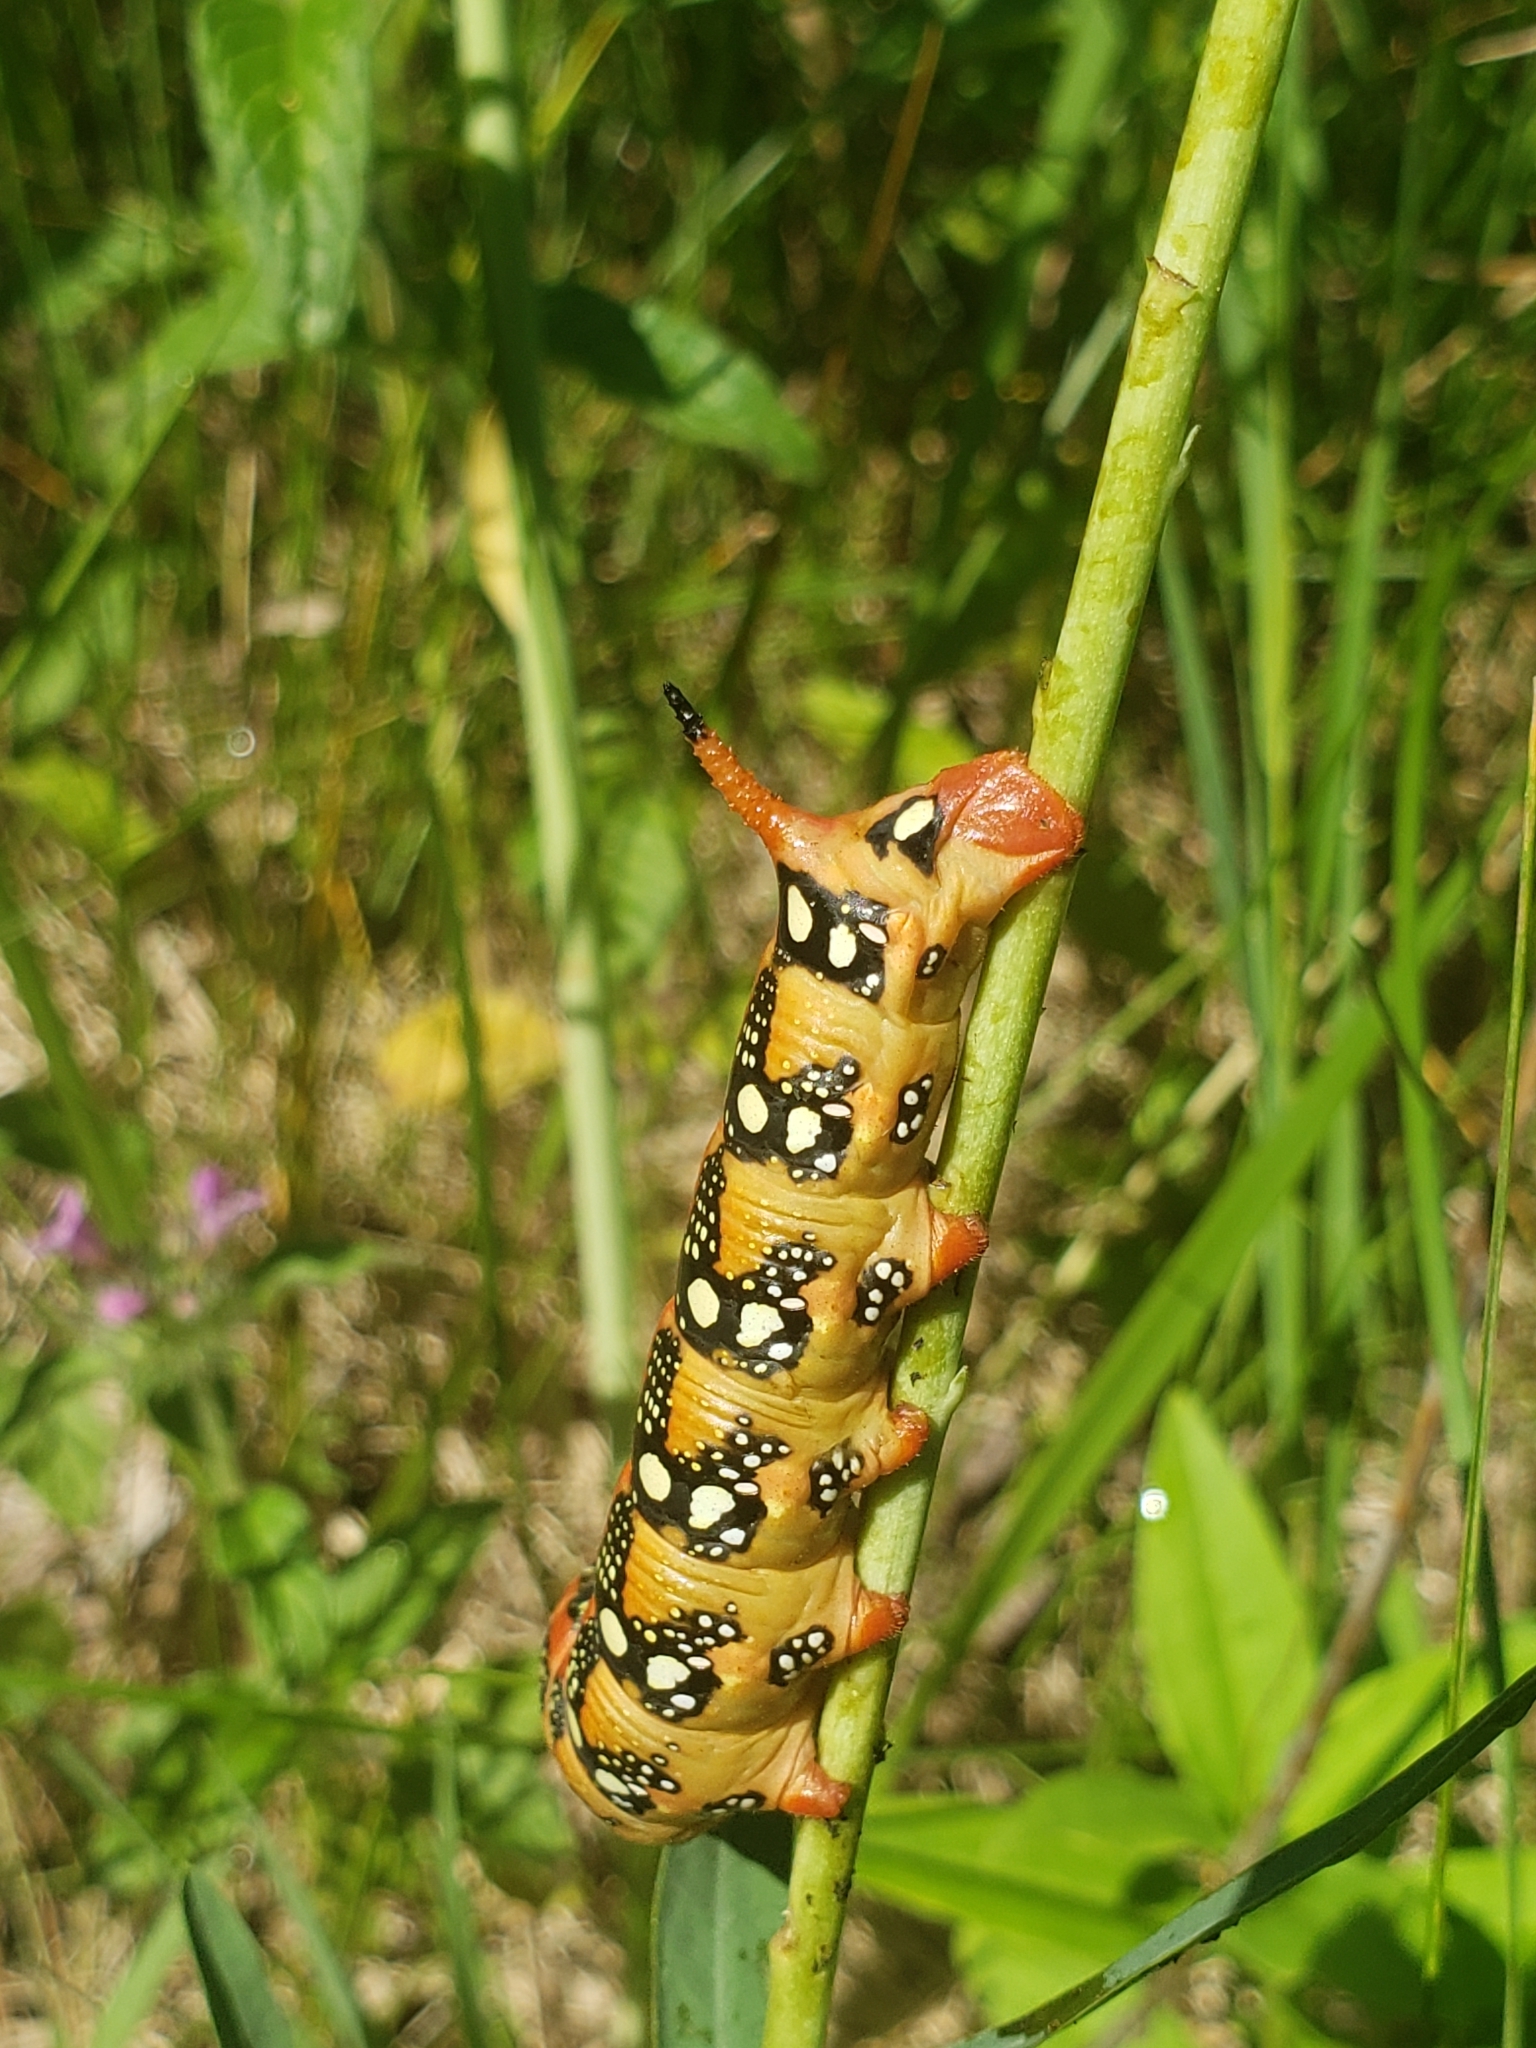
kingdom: Animalia
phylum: Arthropoda
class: Insecta
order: Lepidoptera
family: Sphingidae
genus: Hyles
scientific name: Hyles euphorbiae
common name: Spurge hawk-moth
